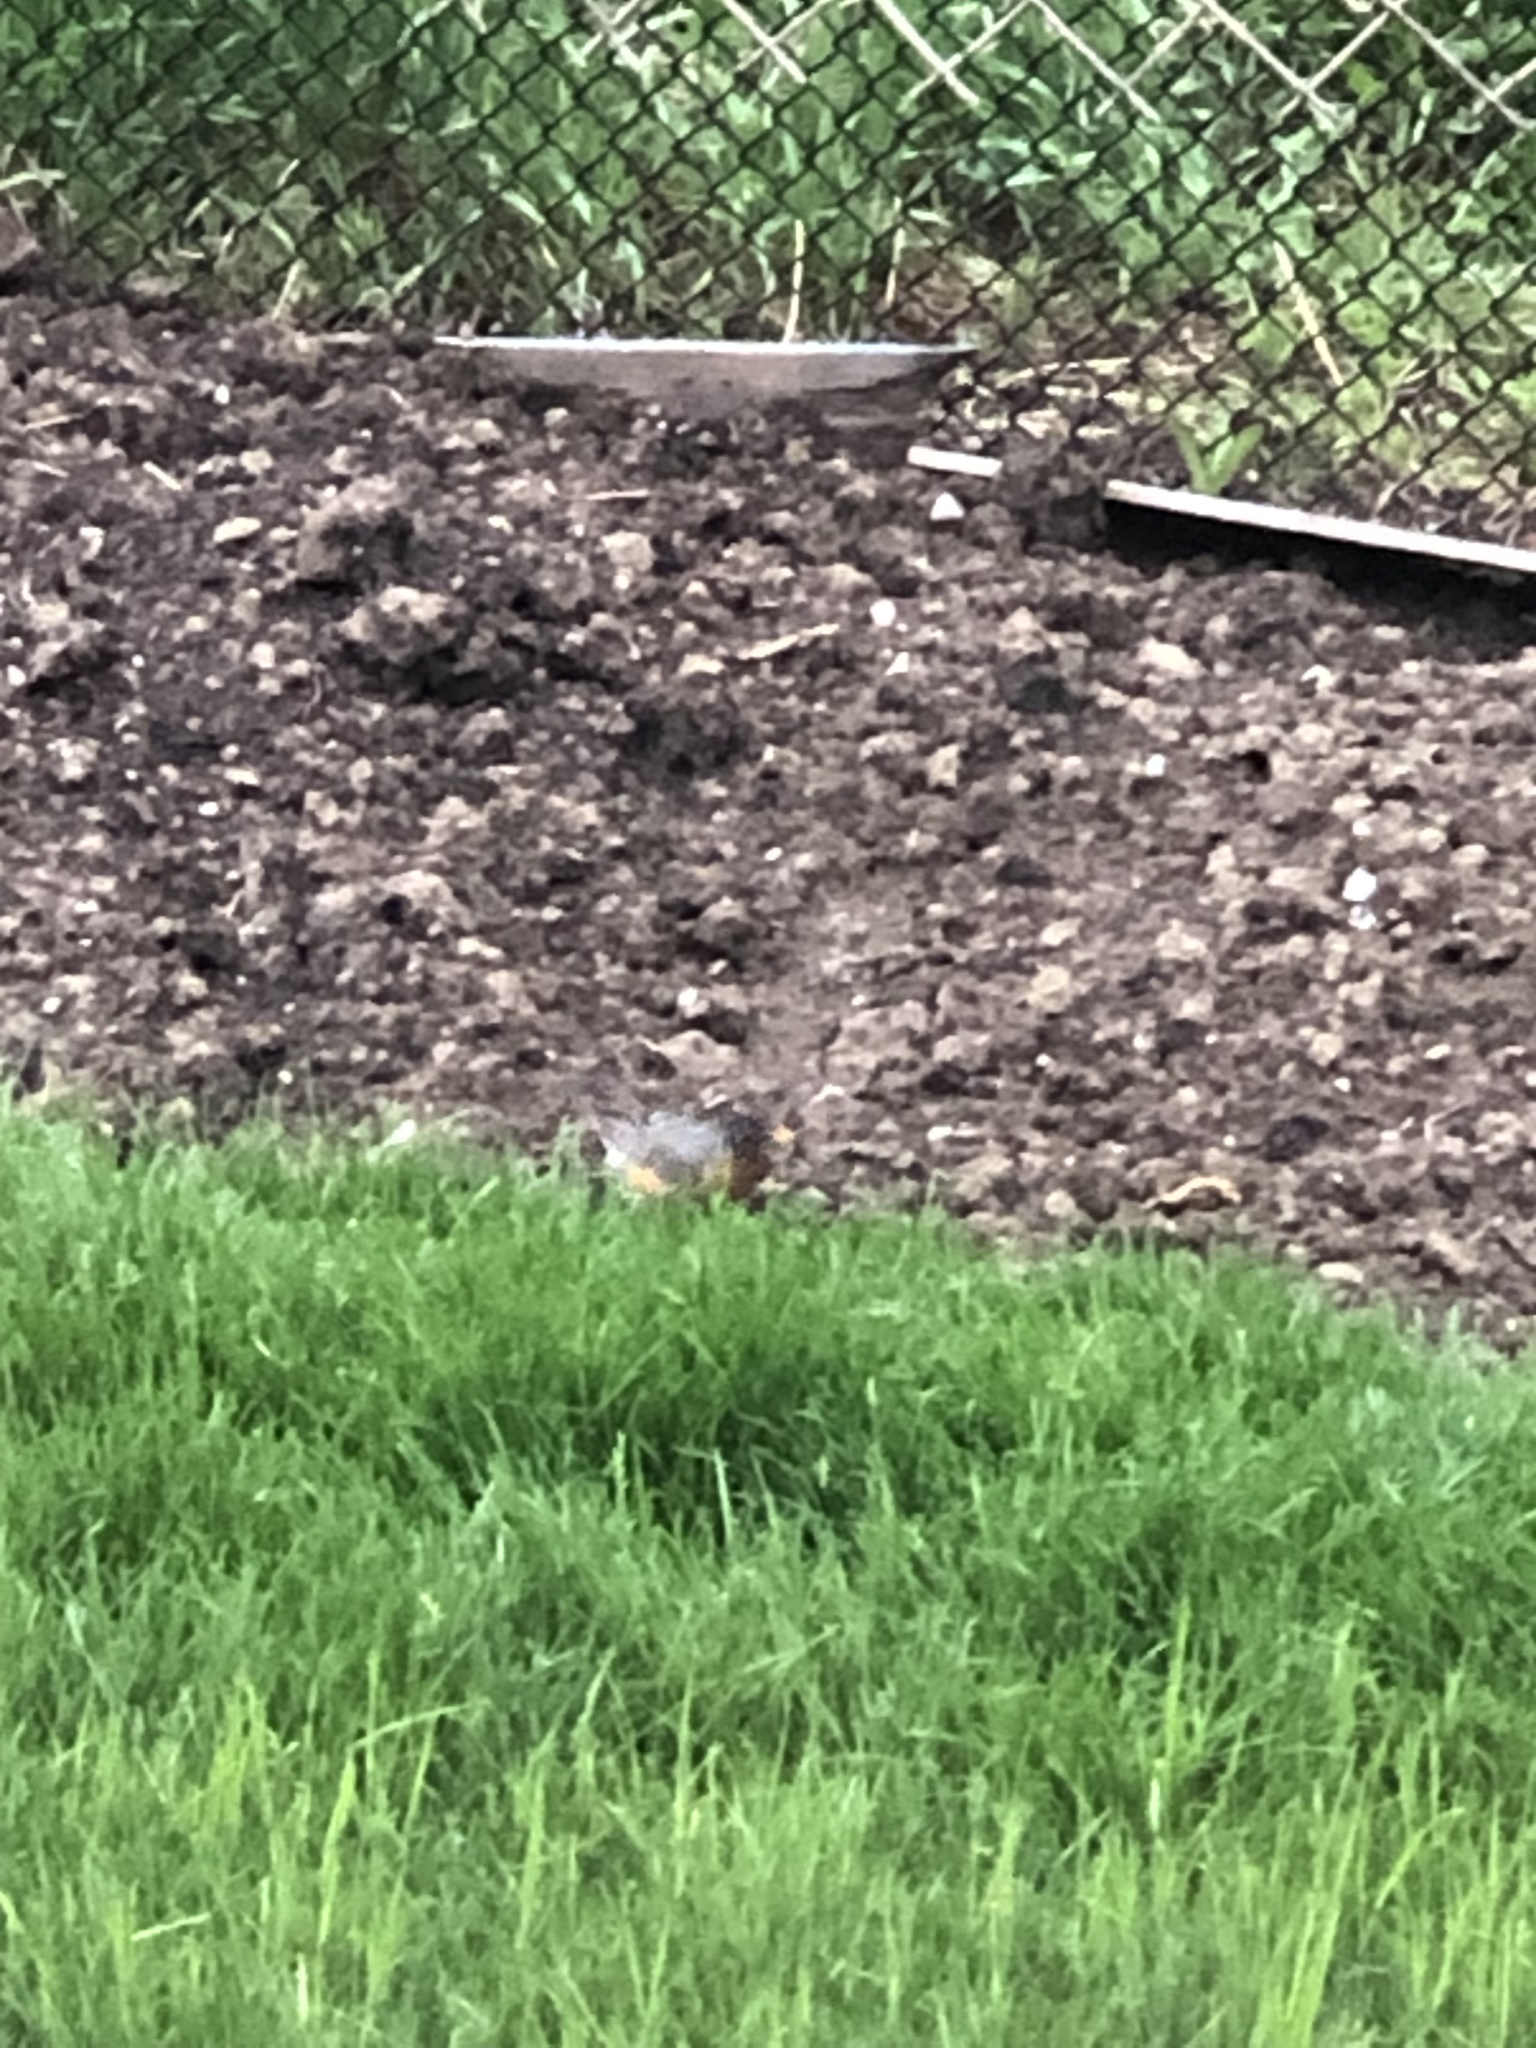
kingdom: Animalia
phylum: Chordata
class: Aves
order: Passeriformes
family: Turdidae
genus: Turdus
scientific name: Turdus migratorius
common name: American robin
